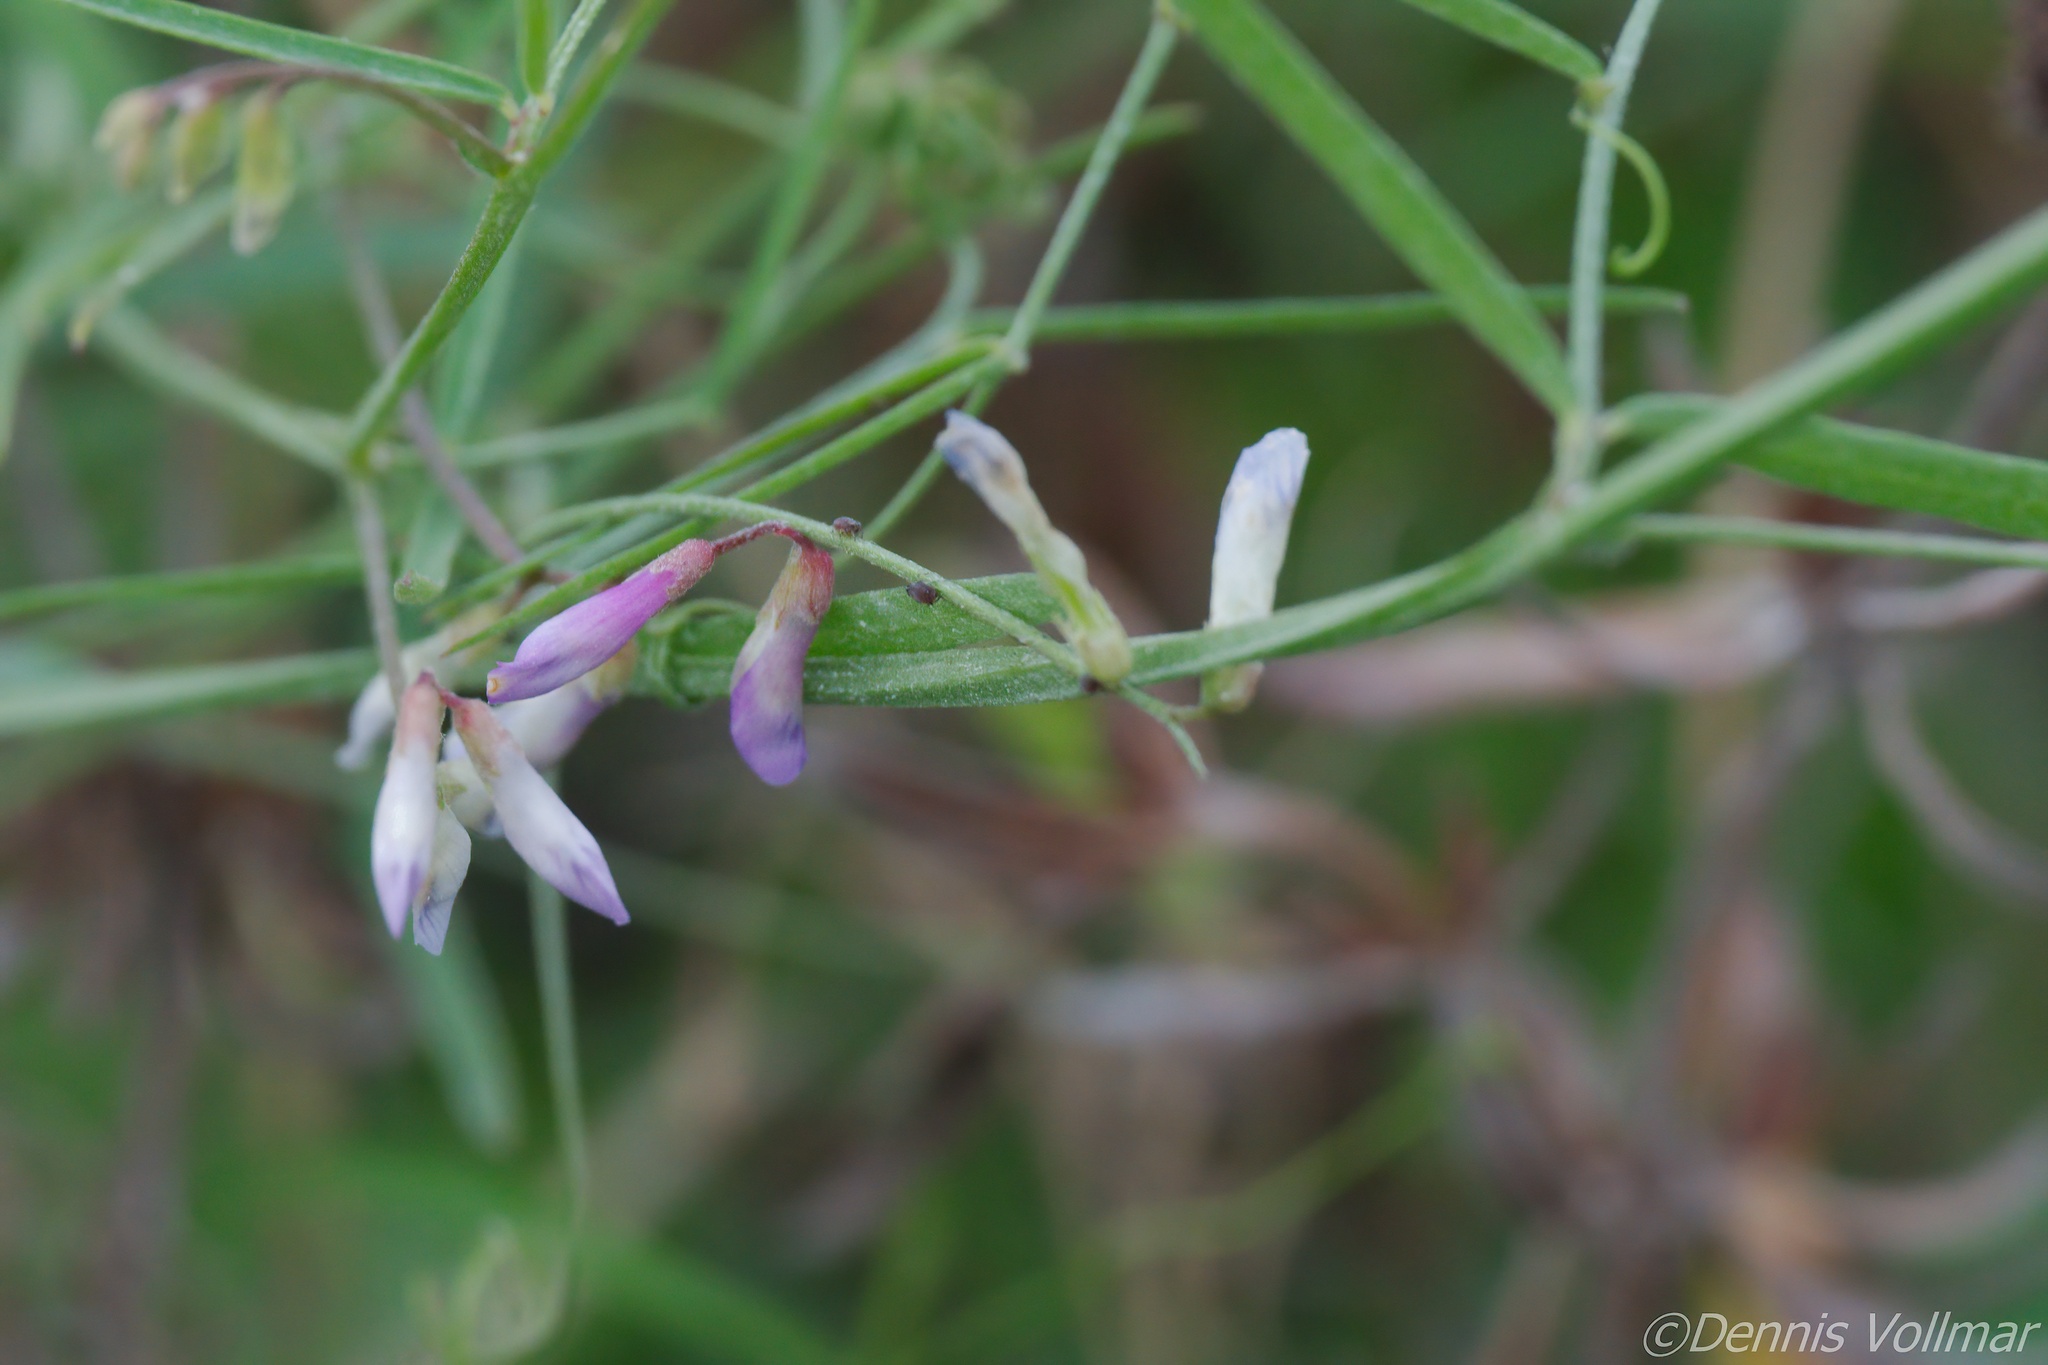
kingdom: Plantae
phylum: Tracheophyta
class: Magnoliopsida
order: Fabales
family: Fabaceae
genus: Vicia
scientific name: Vicia acutifolia
